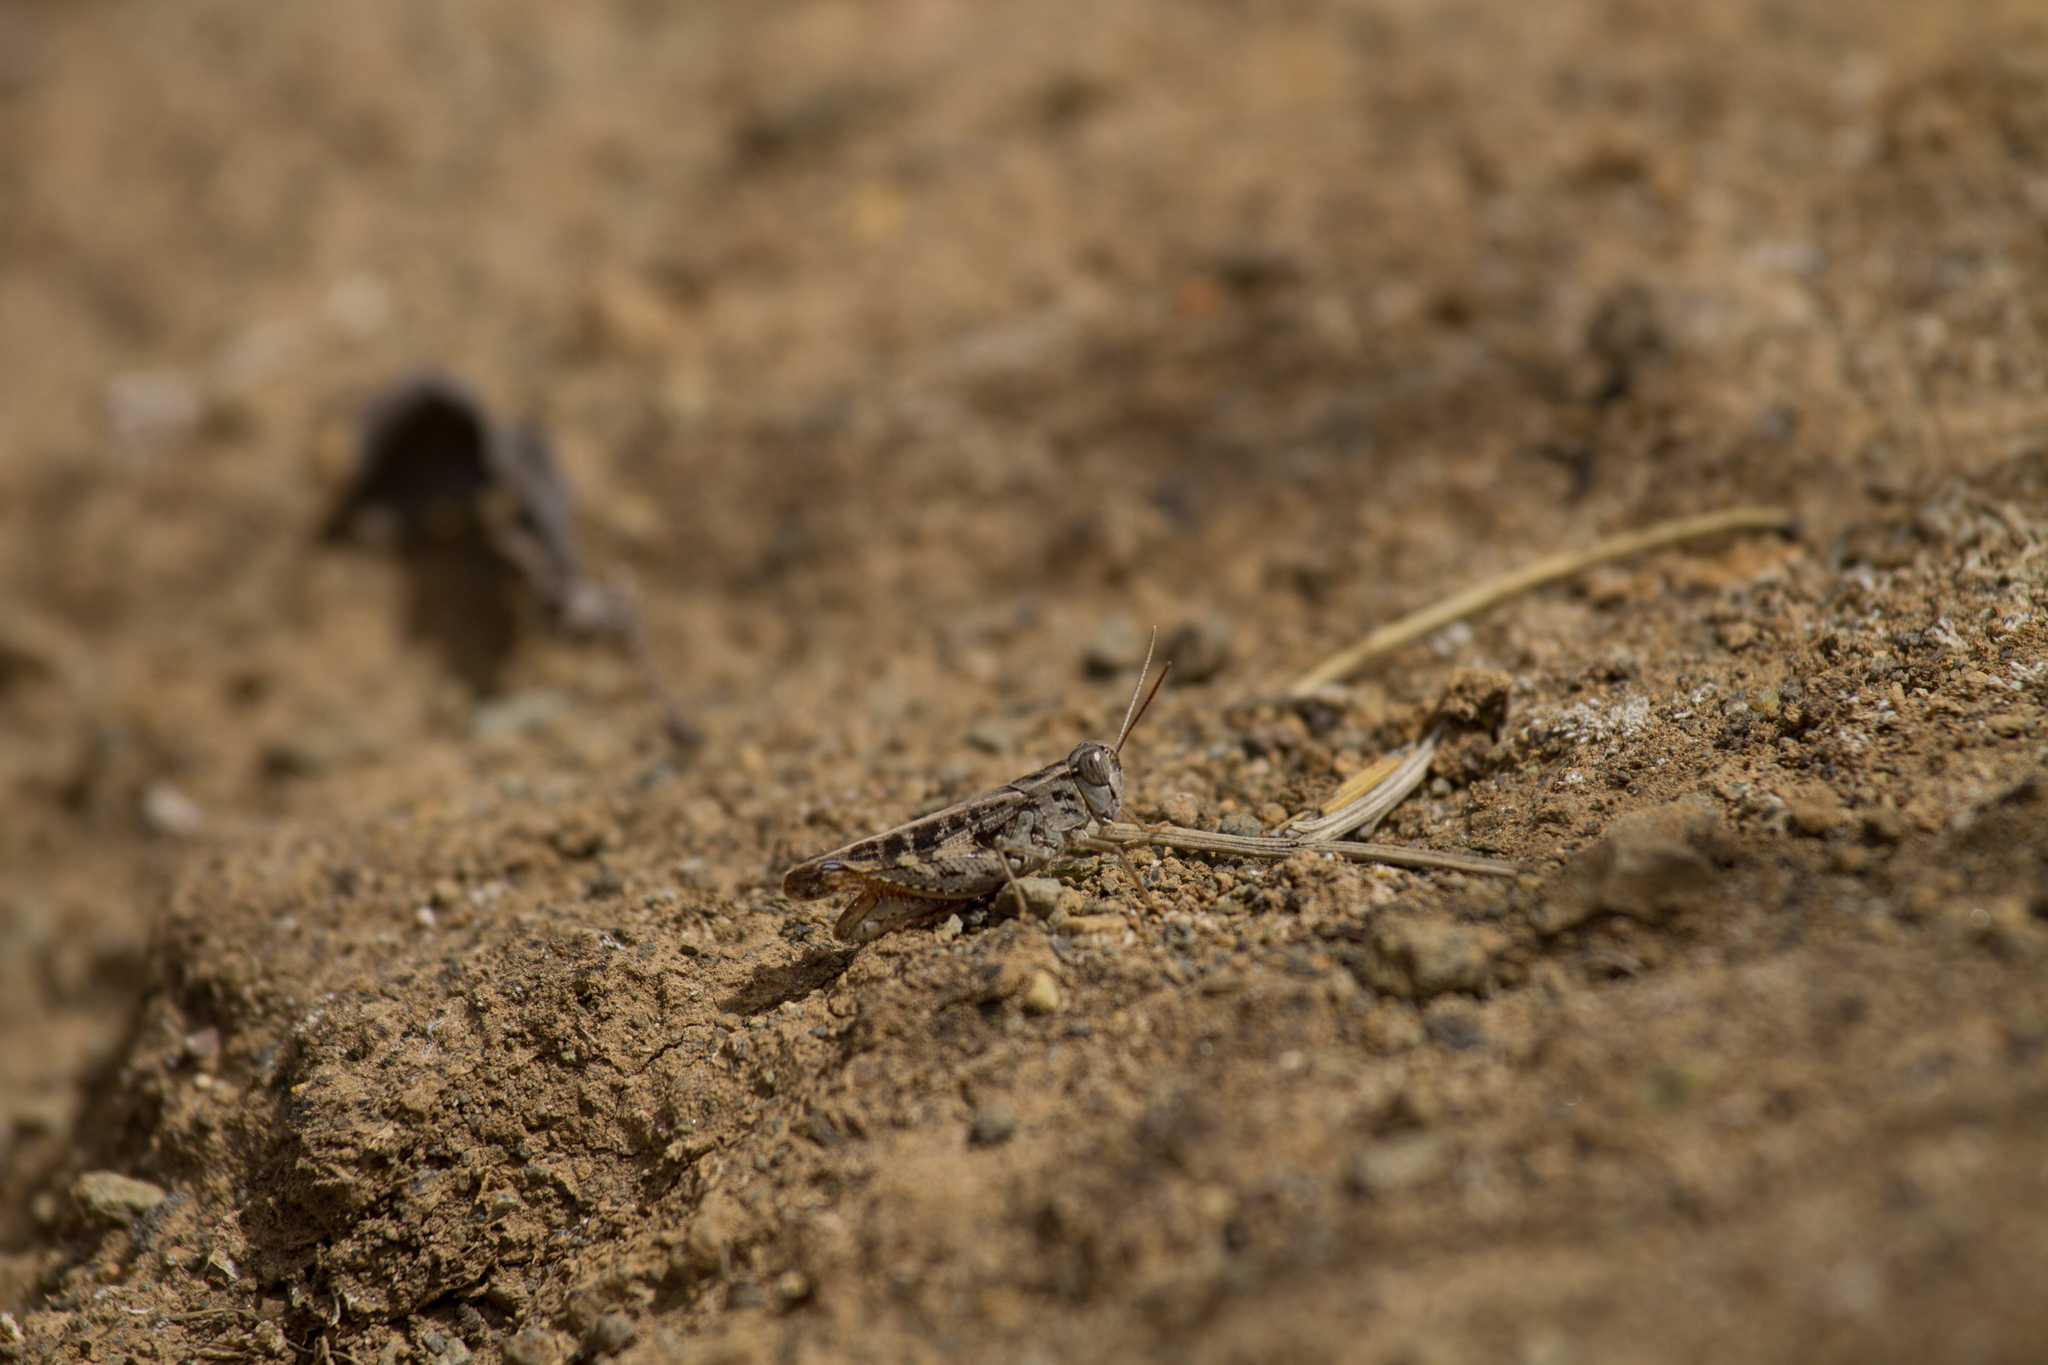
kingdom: Animalia
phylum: Arthropoda
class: Insecta
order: Orthoptera
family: Acrididae
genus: Calliptamus
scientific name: Calliptamus plebeius
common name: Canarian pincer grasshopper
